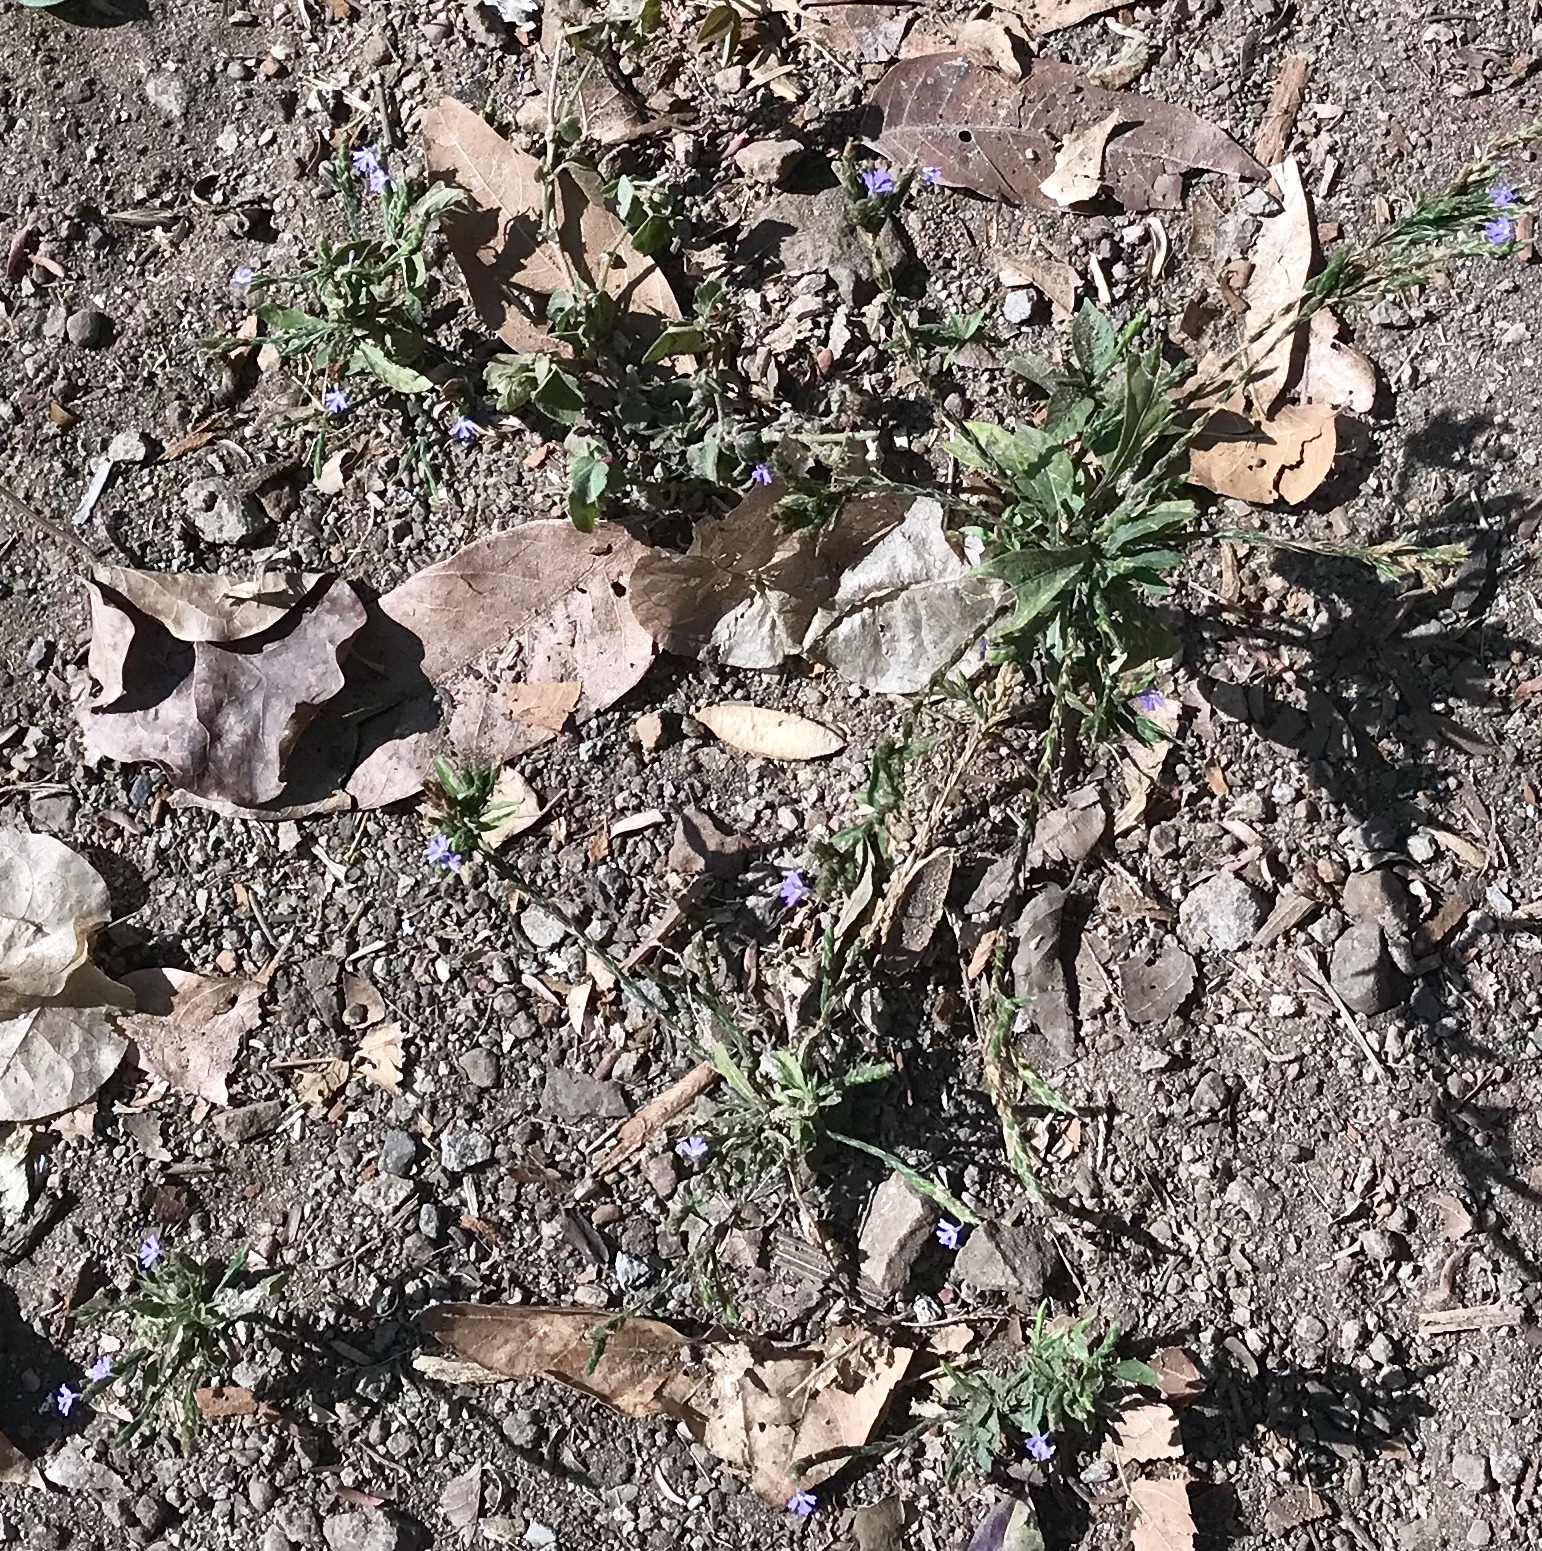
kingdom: Plantae
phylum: Tracheophyta
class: Magnoliopsida
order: Lamiales
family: Acanthaceae
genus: Elytraria
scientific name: Elytraria imbricata
